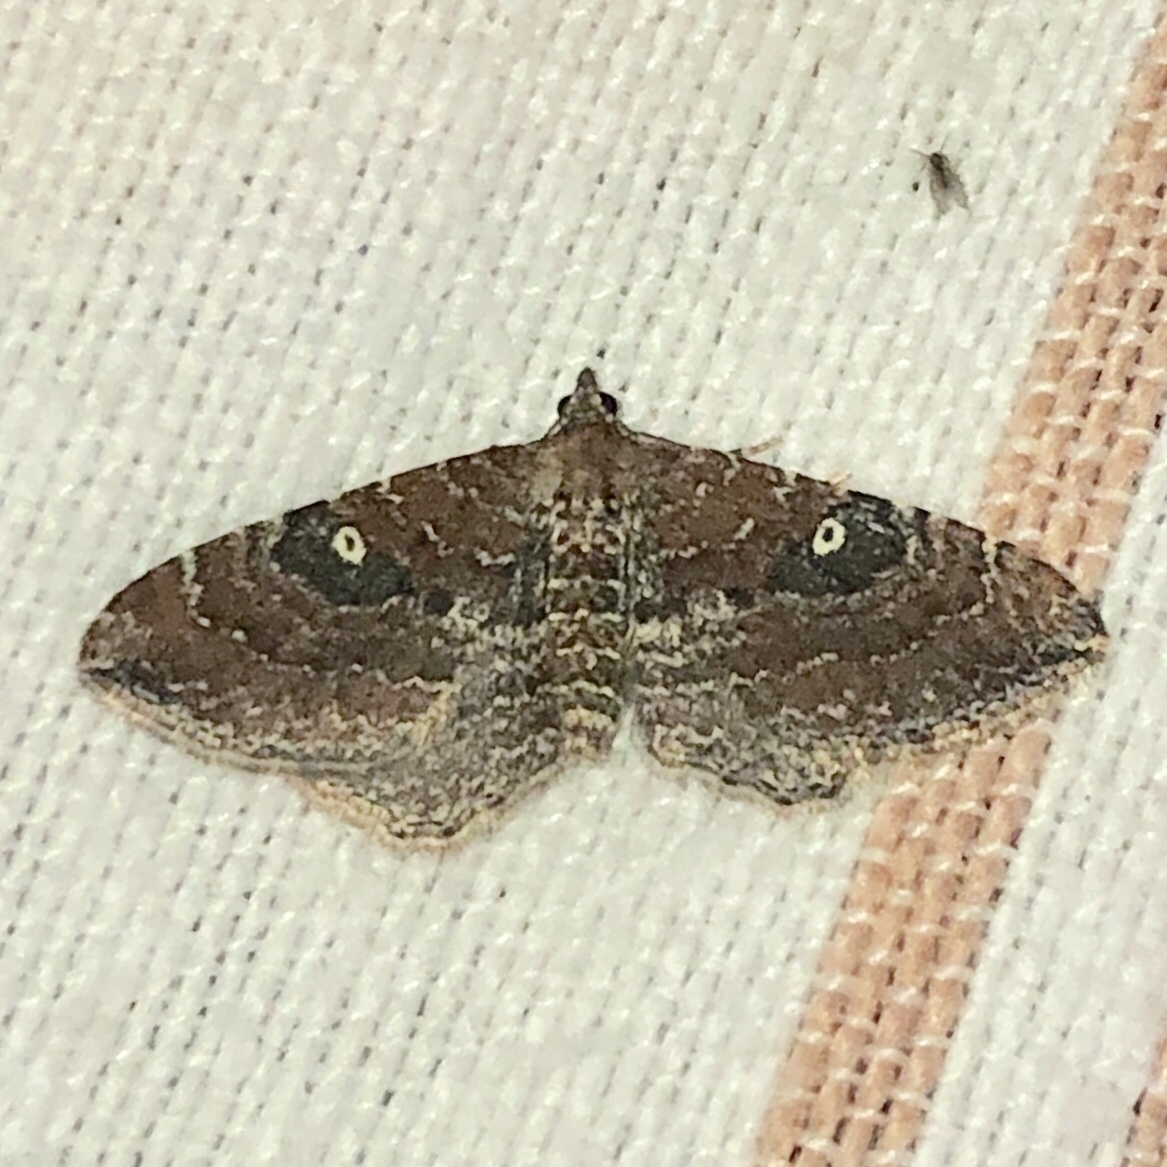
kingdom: Animalia
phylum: Arthropoda
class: Insecta
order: Lepidoptera
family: Geometridae
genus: Orthonama
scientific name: Orthonama obstipata
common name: The gem
